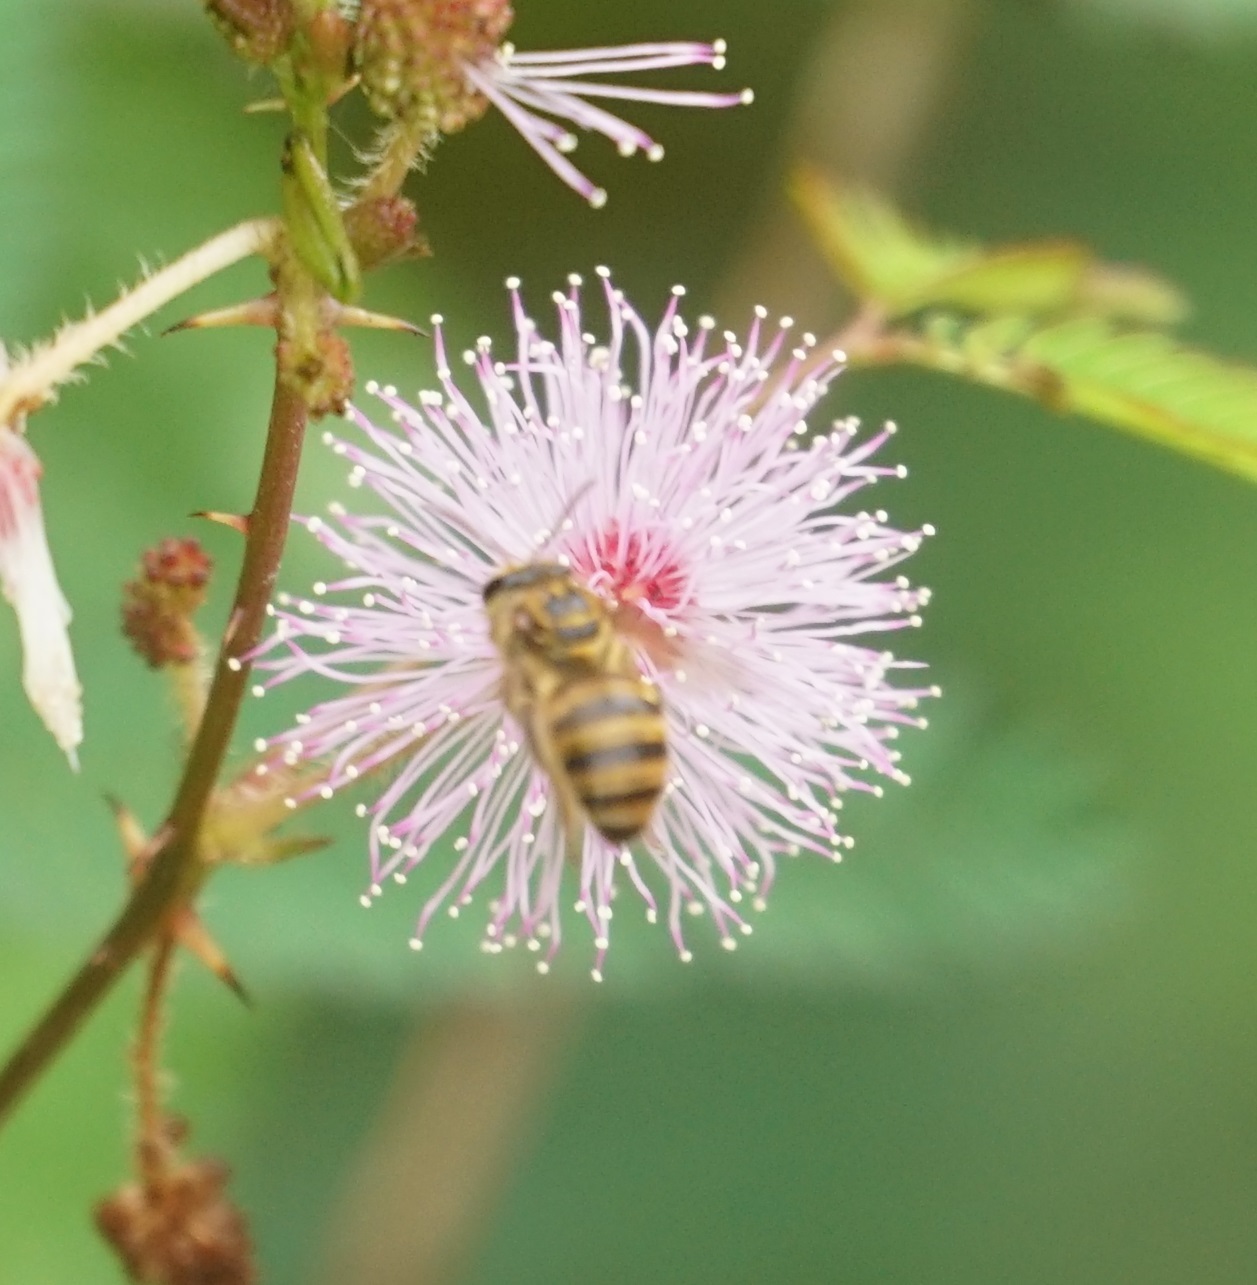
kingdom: Animalia
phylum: Arthropoda
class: Insecta
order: Hymenoptera
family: Halictidae
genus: Mellitidia
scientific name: Mellitidia tomentifera
